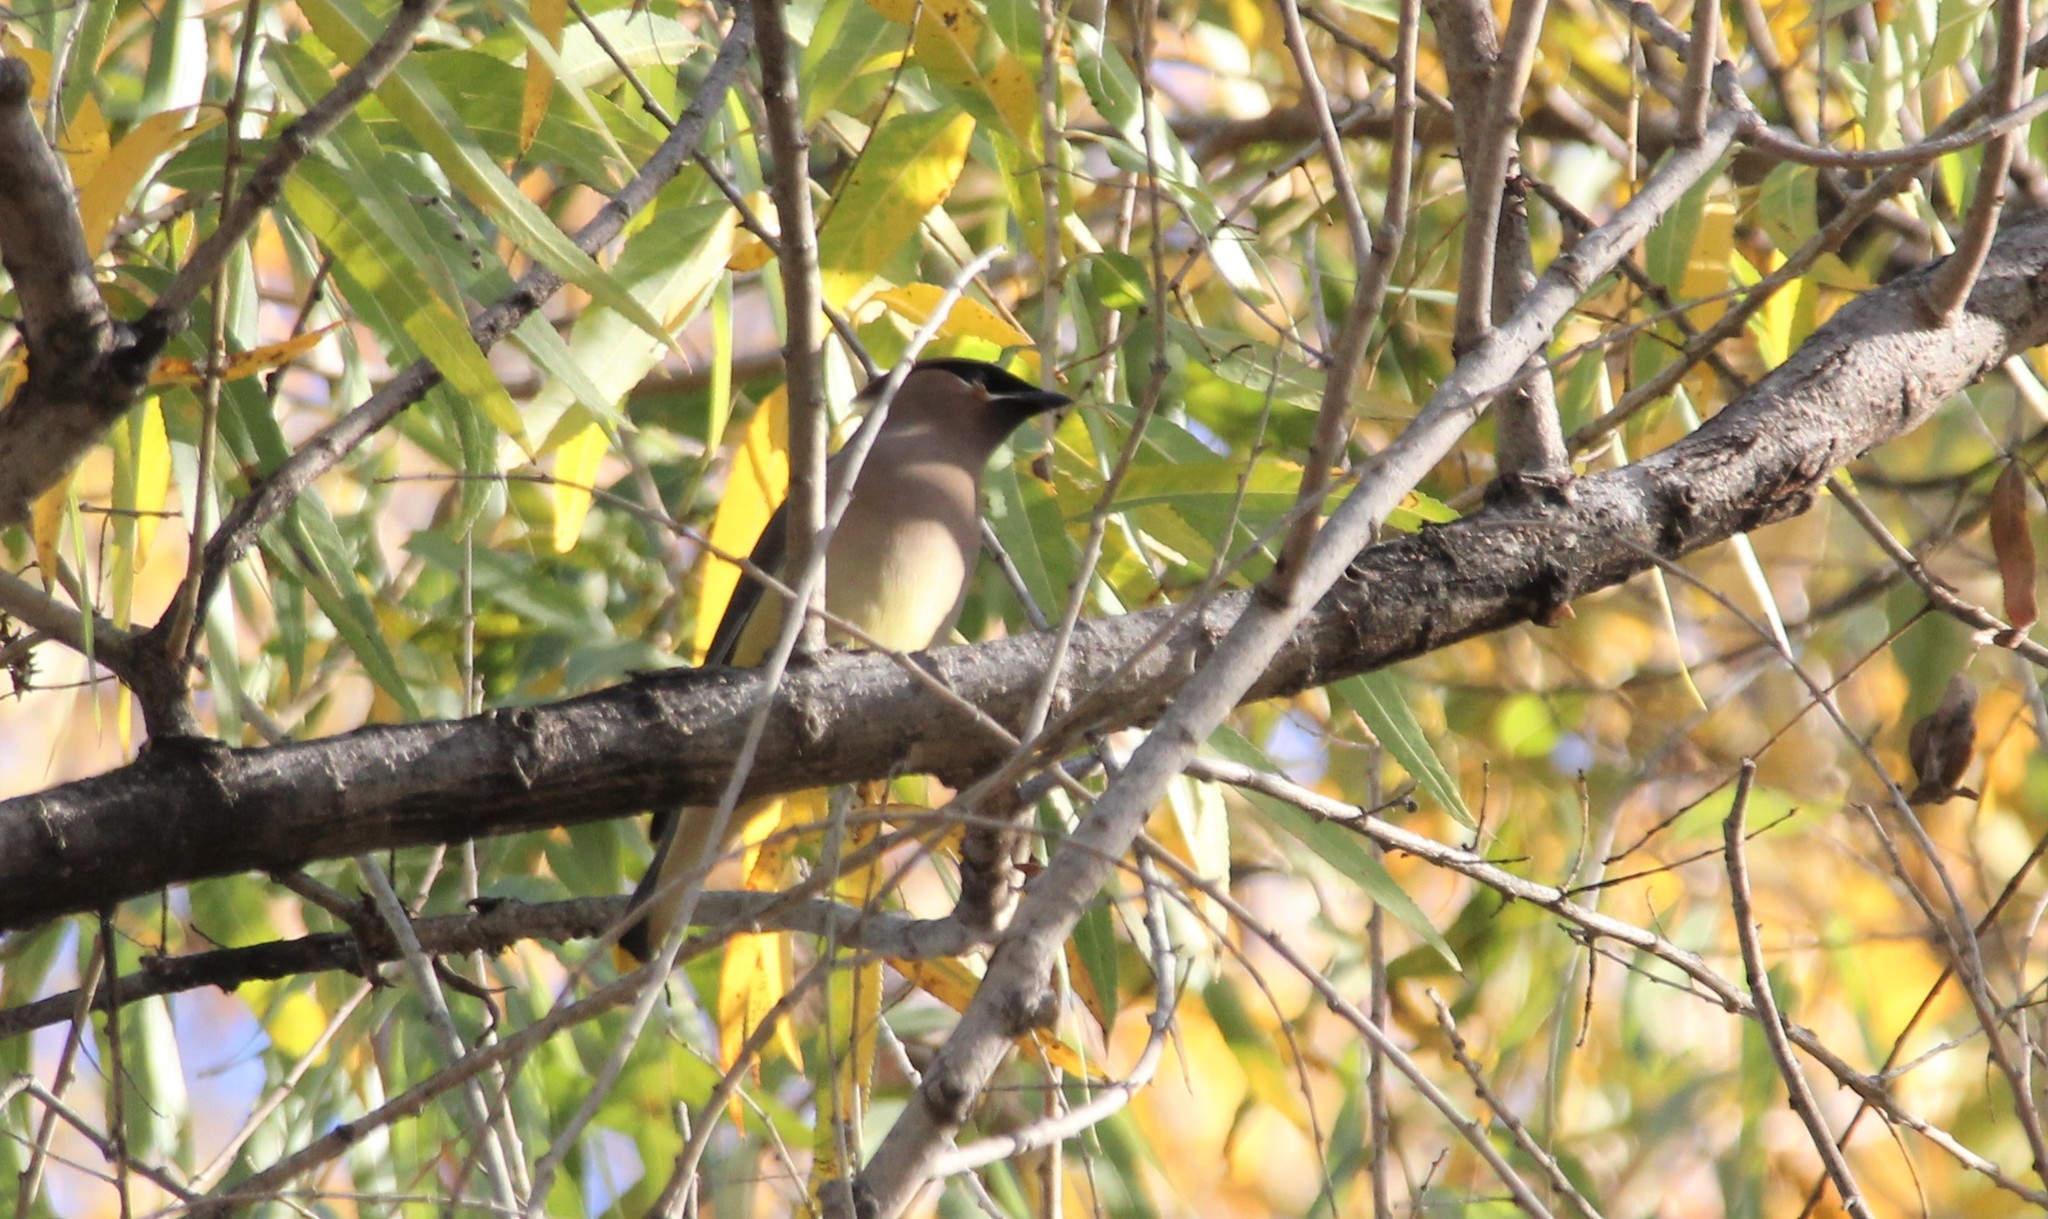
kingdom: Animalia
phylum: Chordata
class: Aves
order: Passeriformes
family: Bombycillidae
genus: Bombycilla
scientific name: Bombycilla cedrorum
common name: Cedar waxwing
